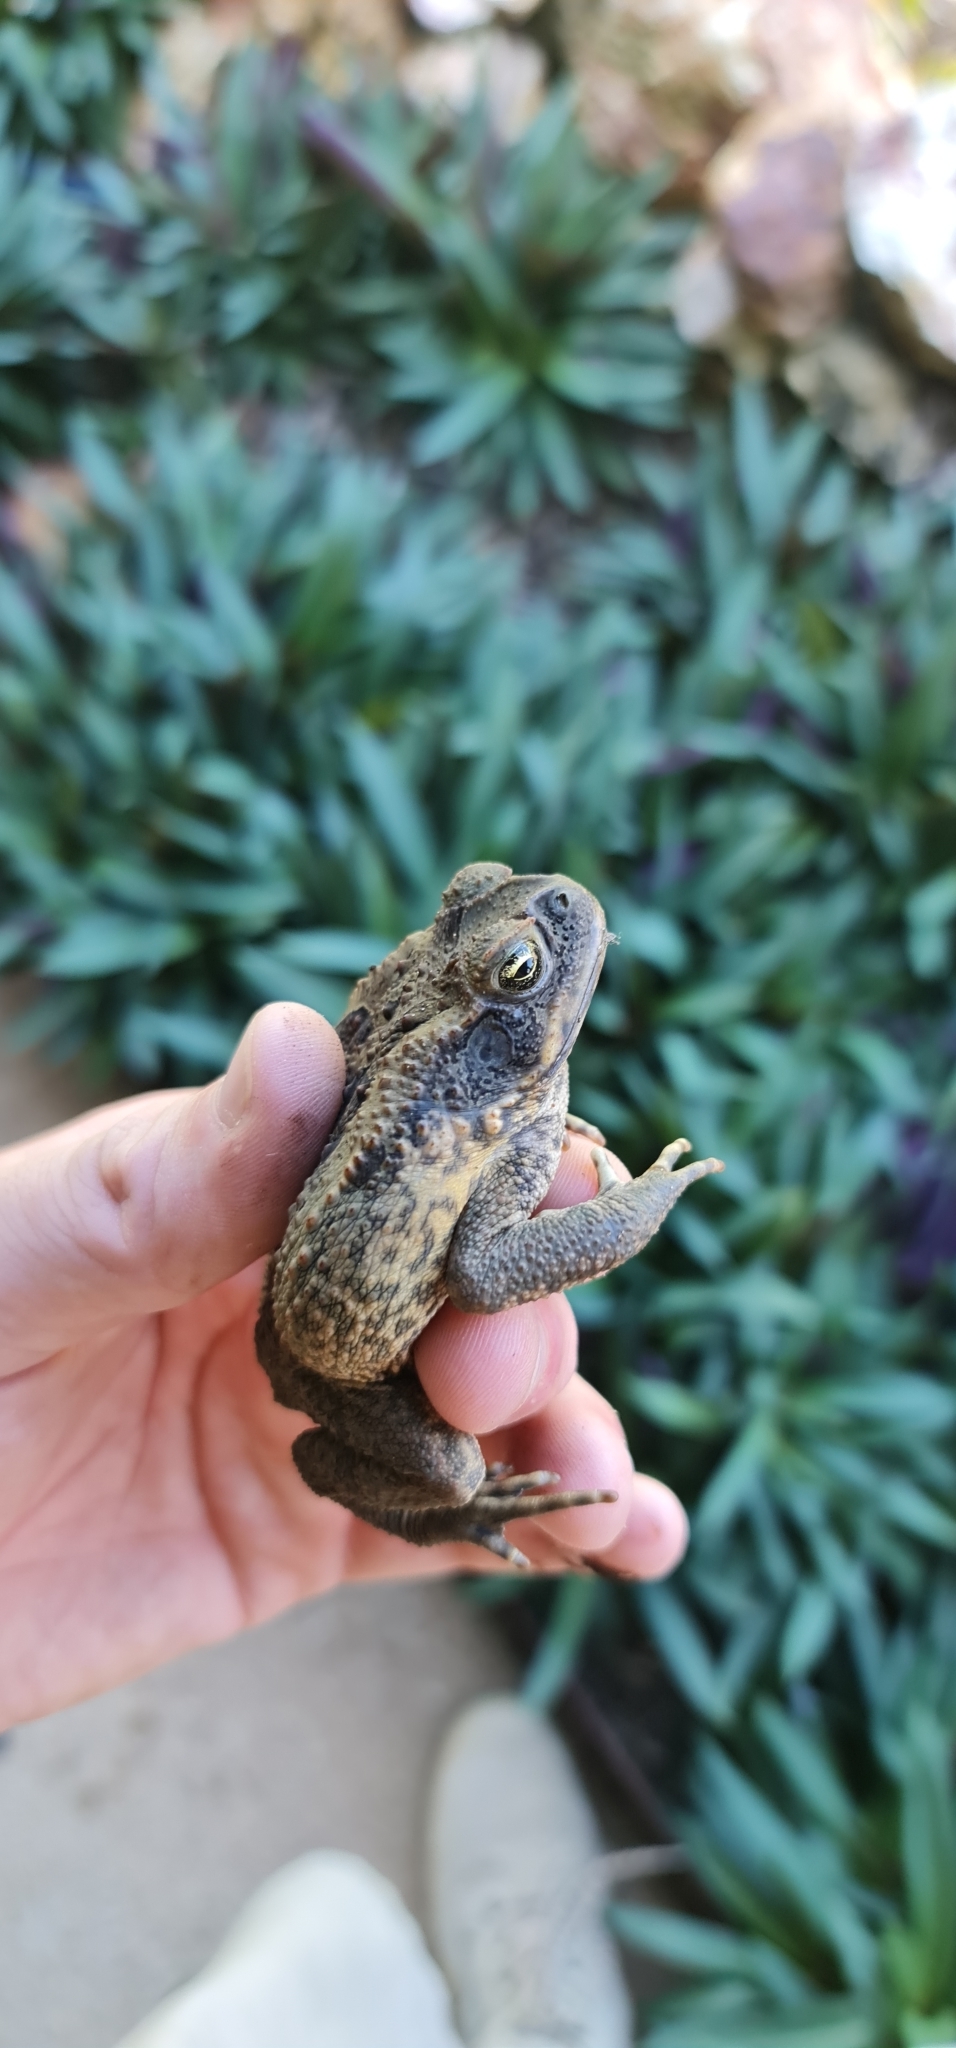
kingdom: Animalia
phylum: Chordata
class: Amphibia
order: Anura
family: Bufonidae
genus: Rhinella
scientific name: Rhinella marina
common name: Cane toad
